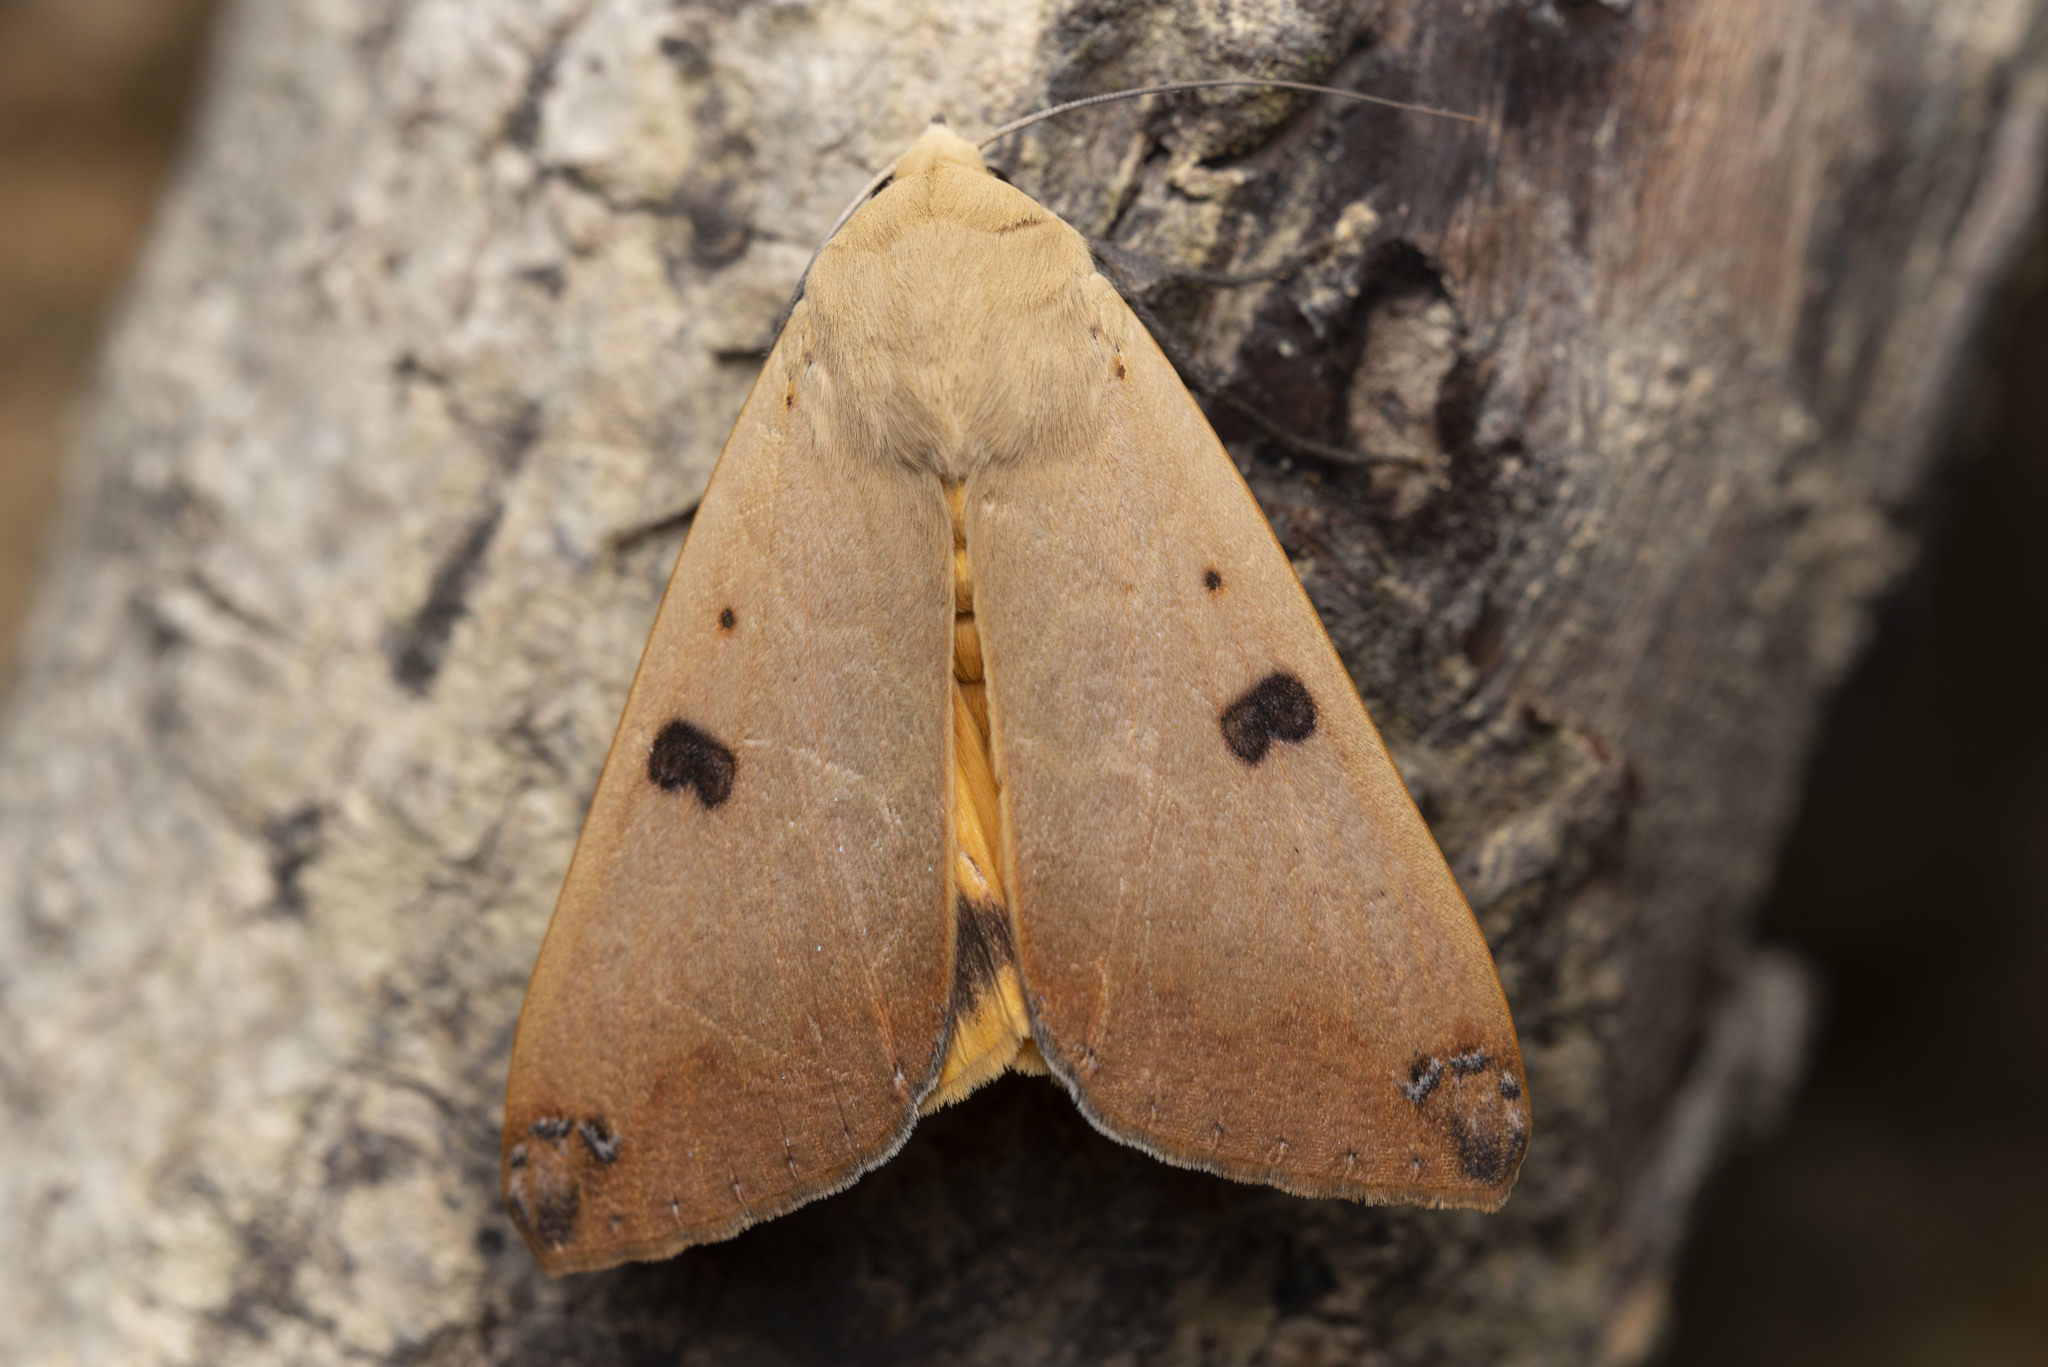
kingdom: Animalia
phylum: Arthropoda
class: Insecta
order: Lepidoptera
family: Erebidae
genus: Ophiusa
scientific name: Ophiusa disjungens
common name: Moth
